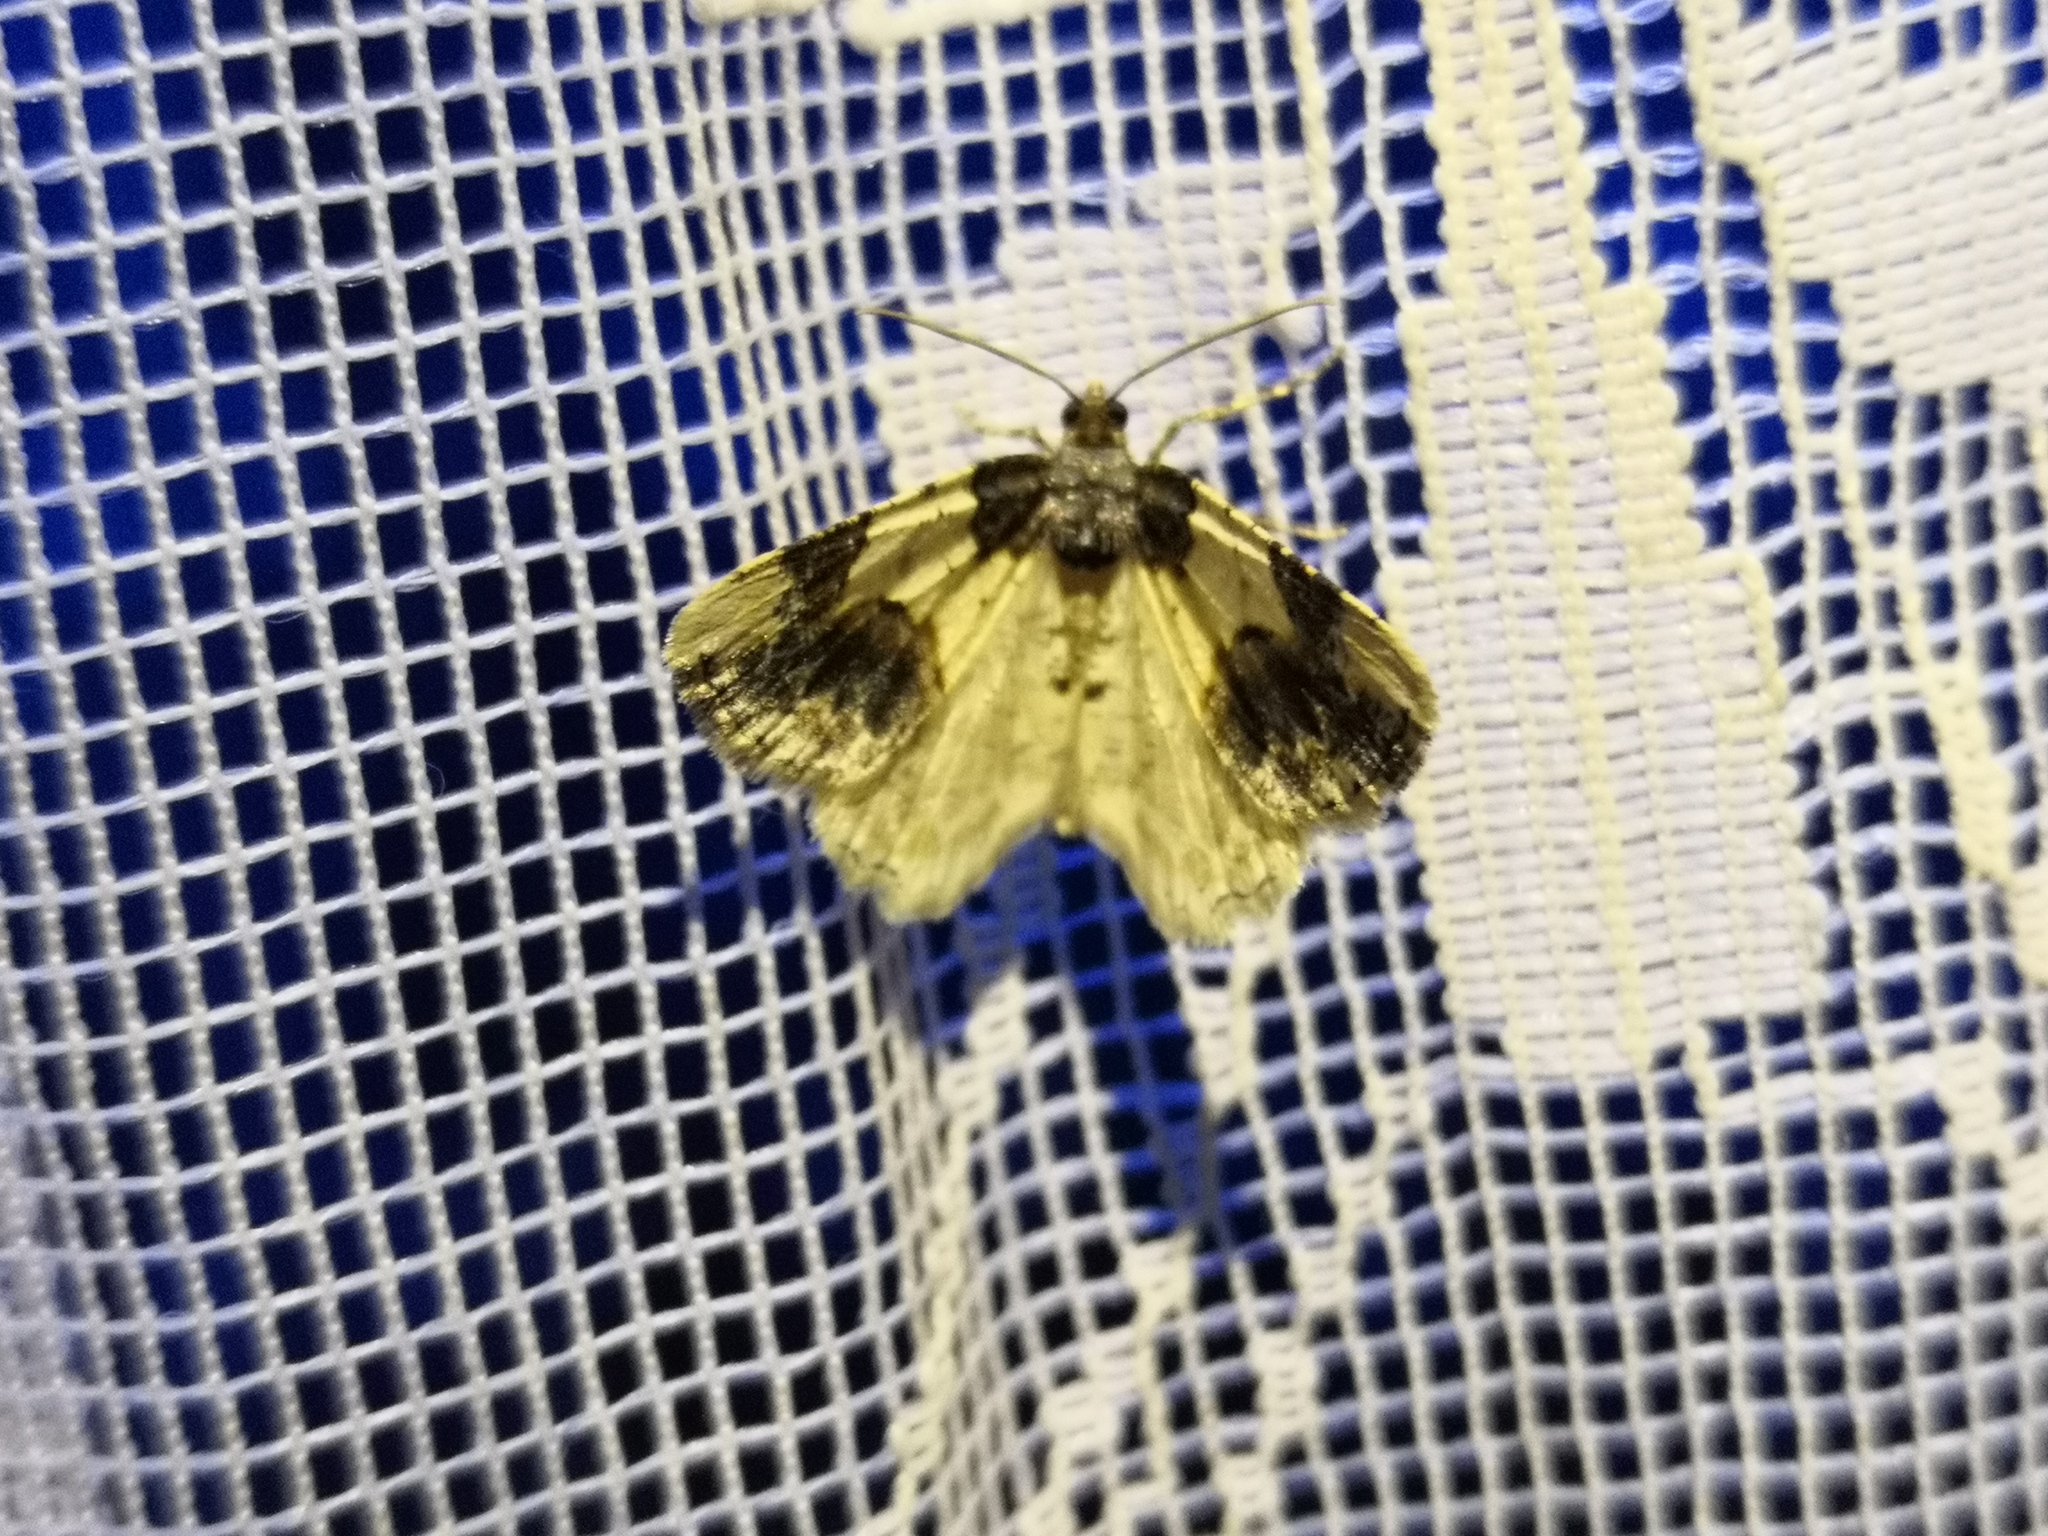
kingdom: Animalia
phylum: Arthropoda
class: Insecta
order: Lepidoptera
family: Geometridae
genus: Ligdia
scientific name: Ligdia adustata
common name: Scorched carpet
